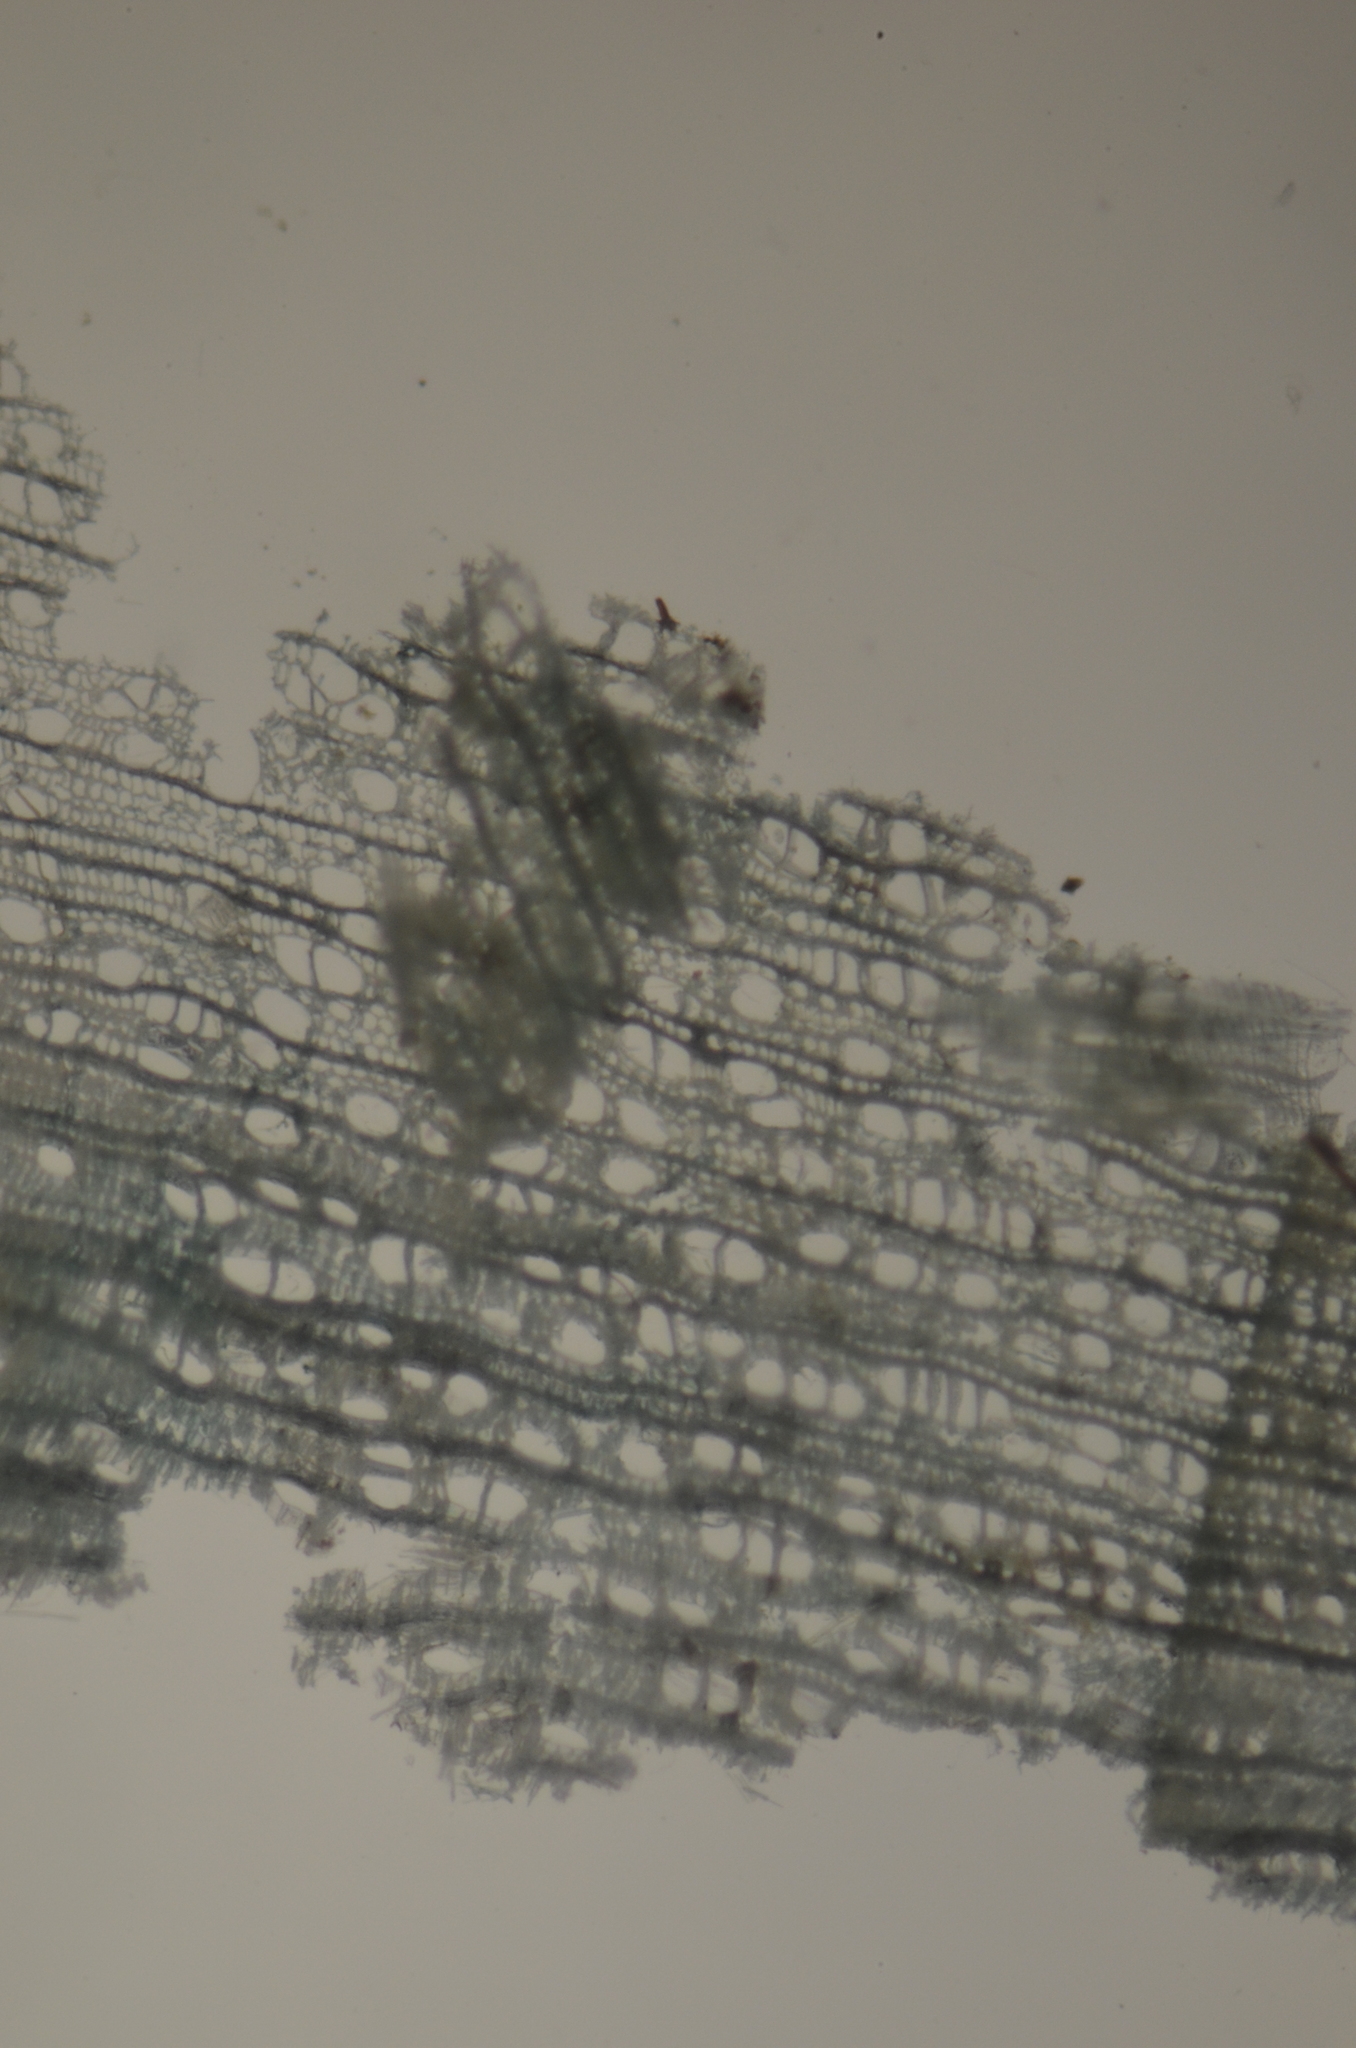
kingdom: Fungi
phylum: Ascomycota
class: Leotiomycetes
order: Helotiales
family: Chlorociboriaceae
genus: Chlorociboria
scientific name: Chlorociboria
